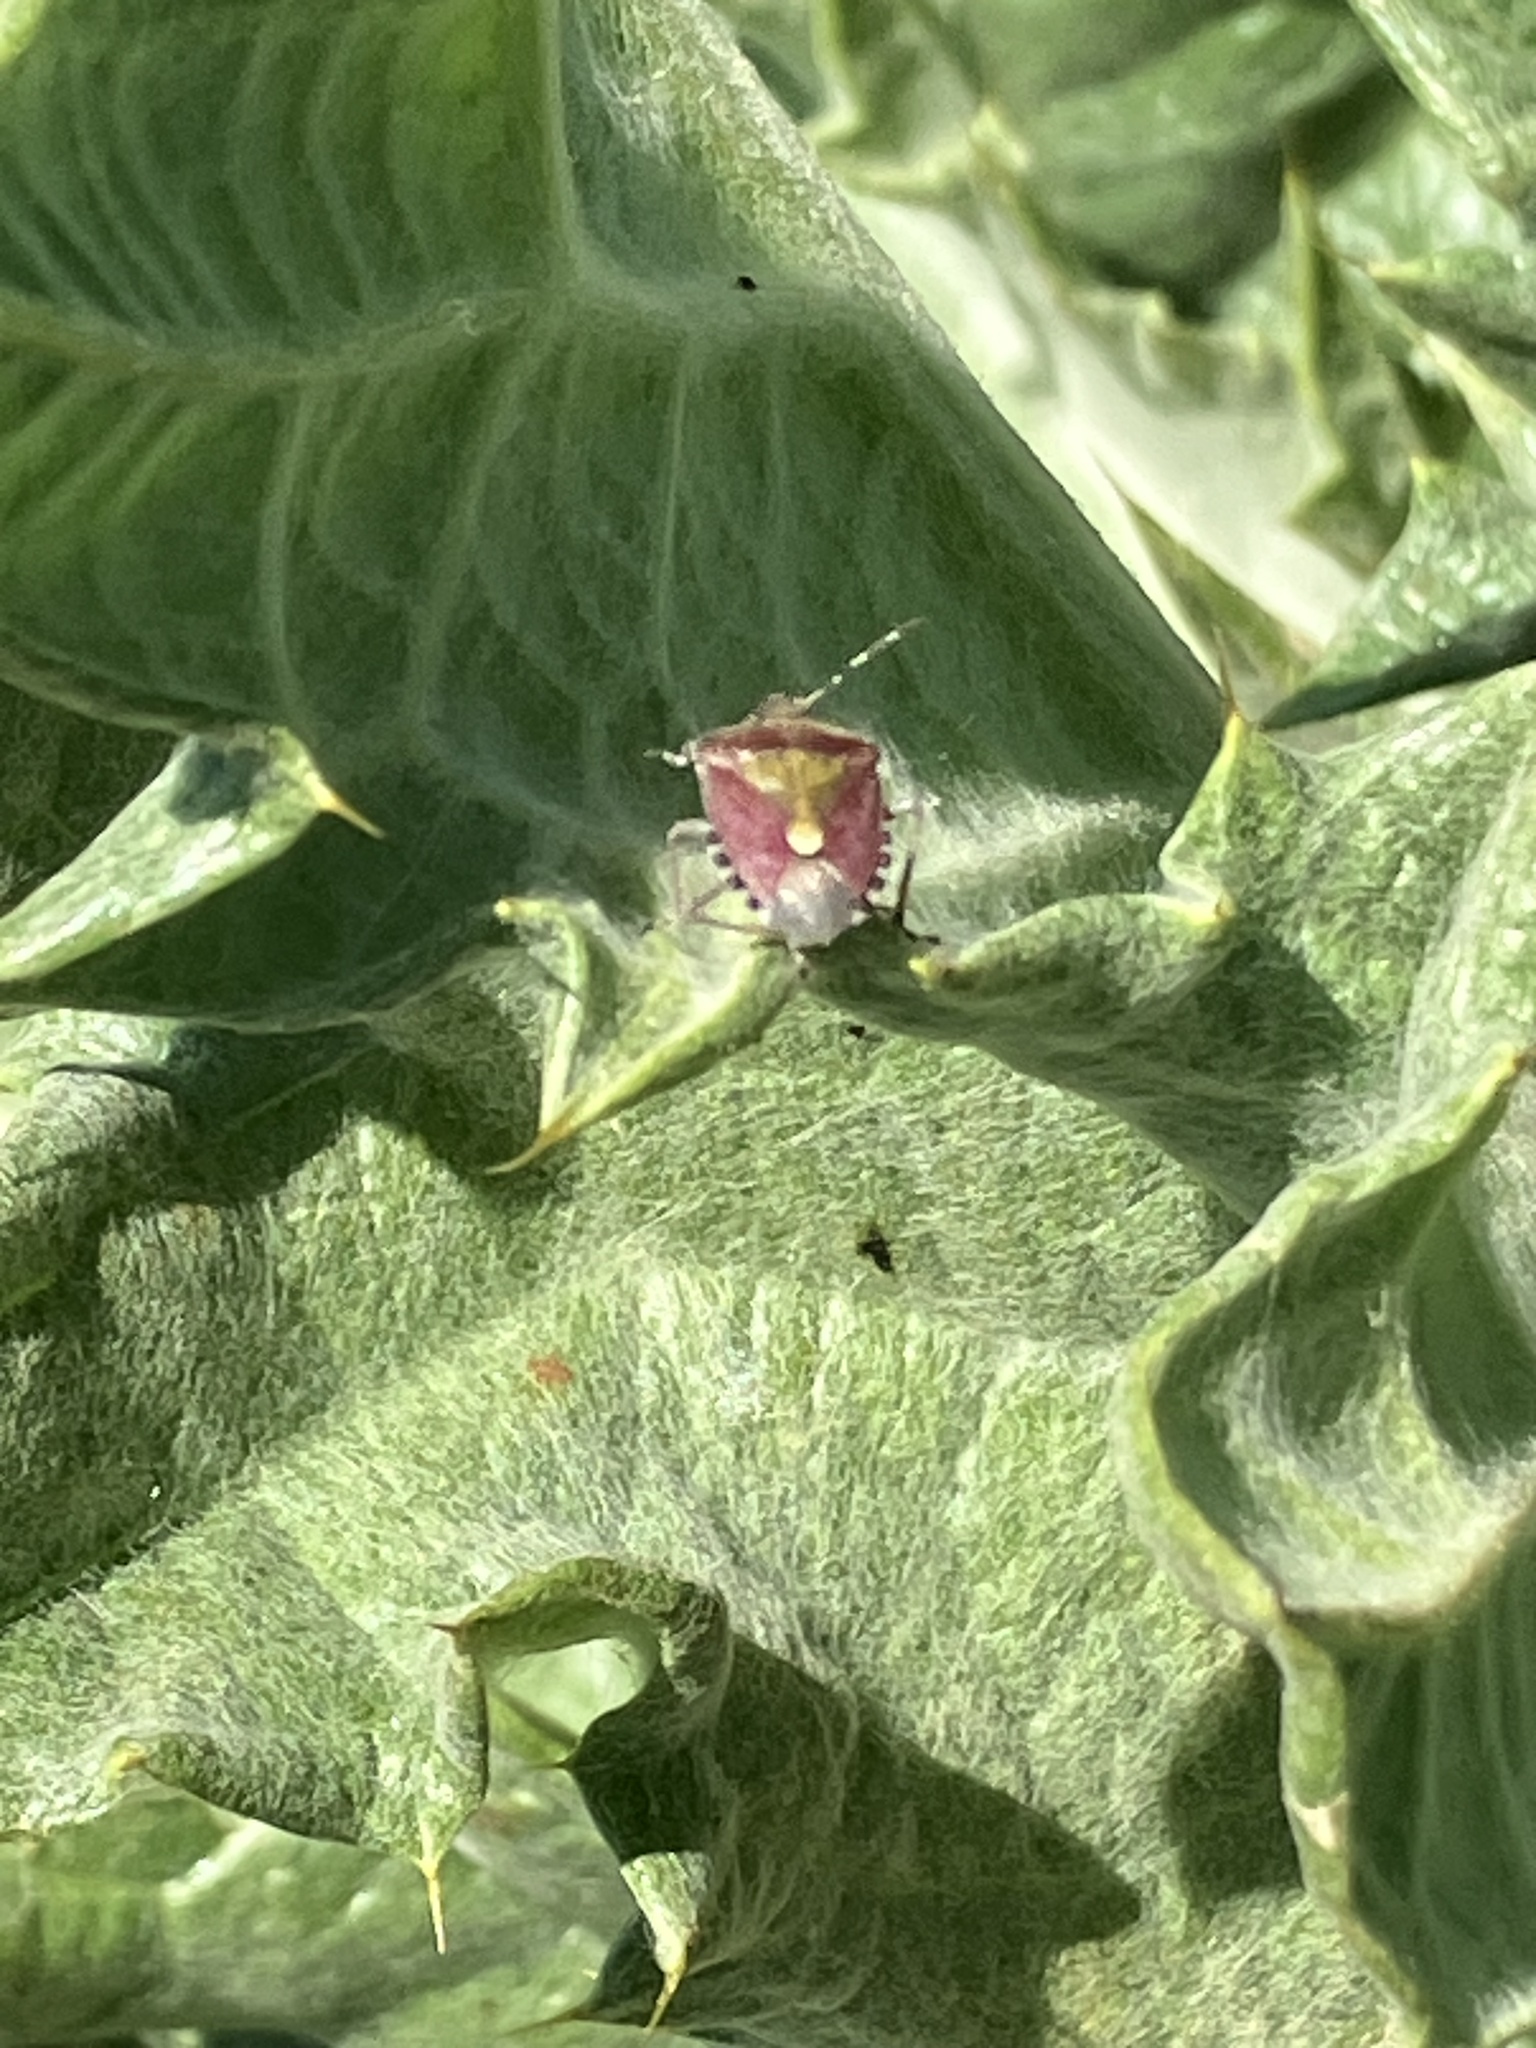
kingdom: Animalia
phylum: Arthropoda
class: Insecta
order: Hemiptera
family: Pentatomidae
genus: Dolycoris
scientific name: Dolycoris baccarum
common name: Sloe bug
